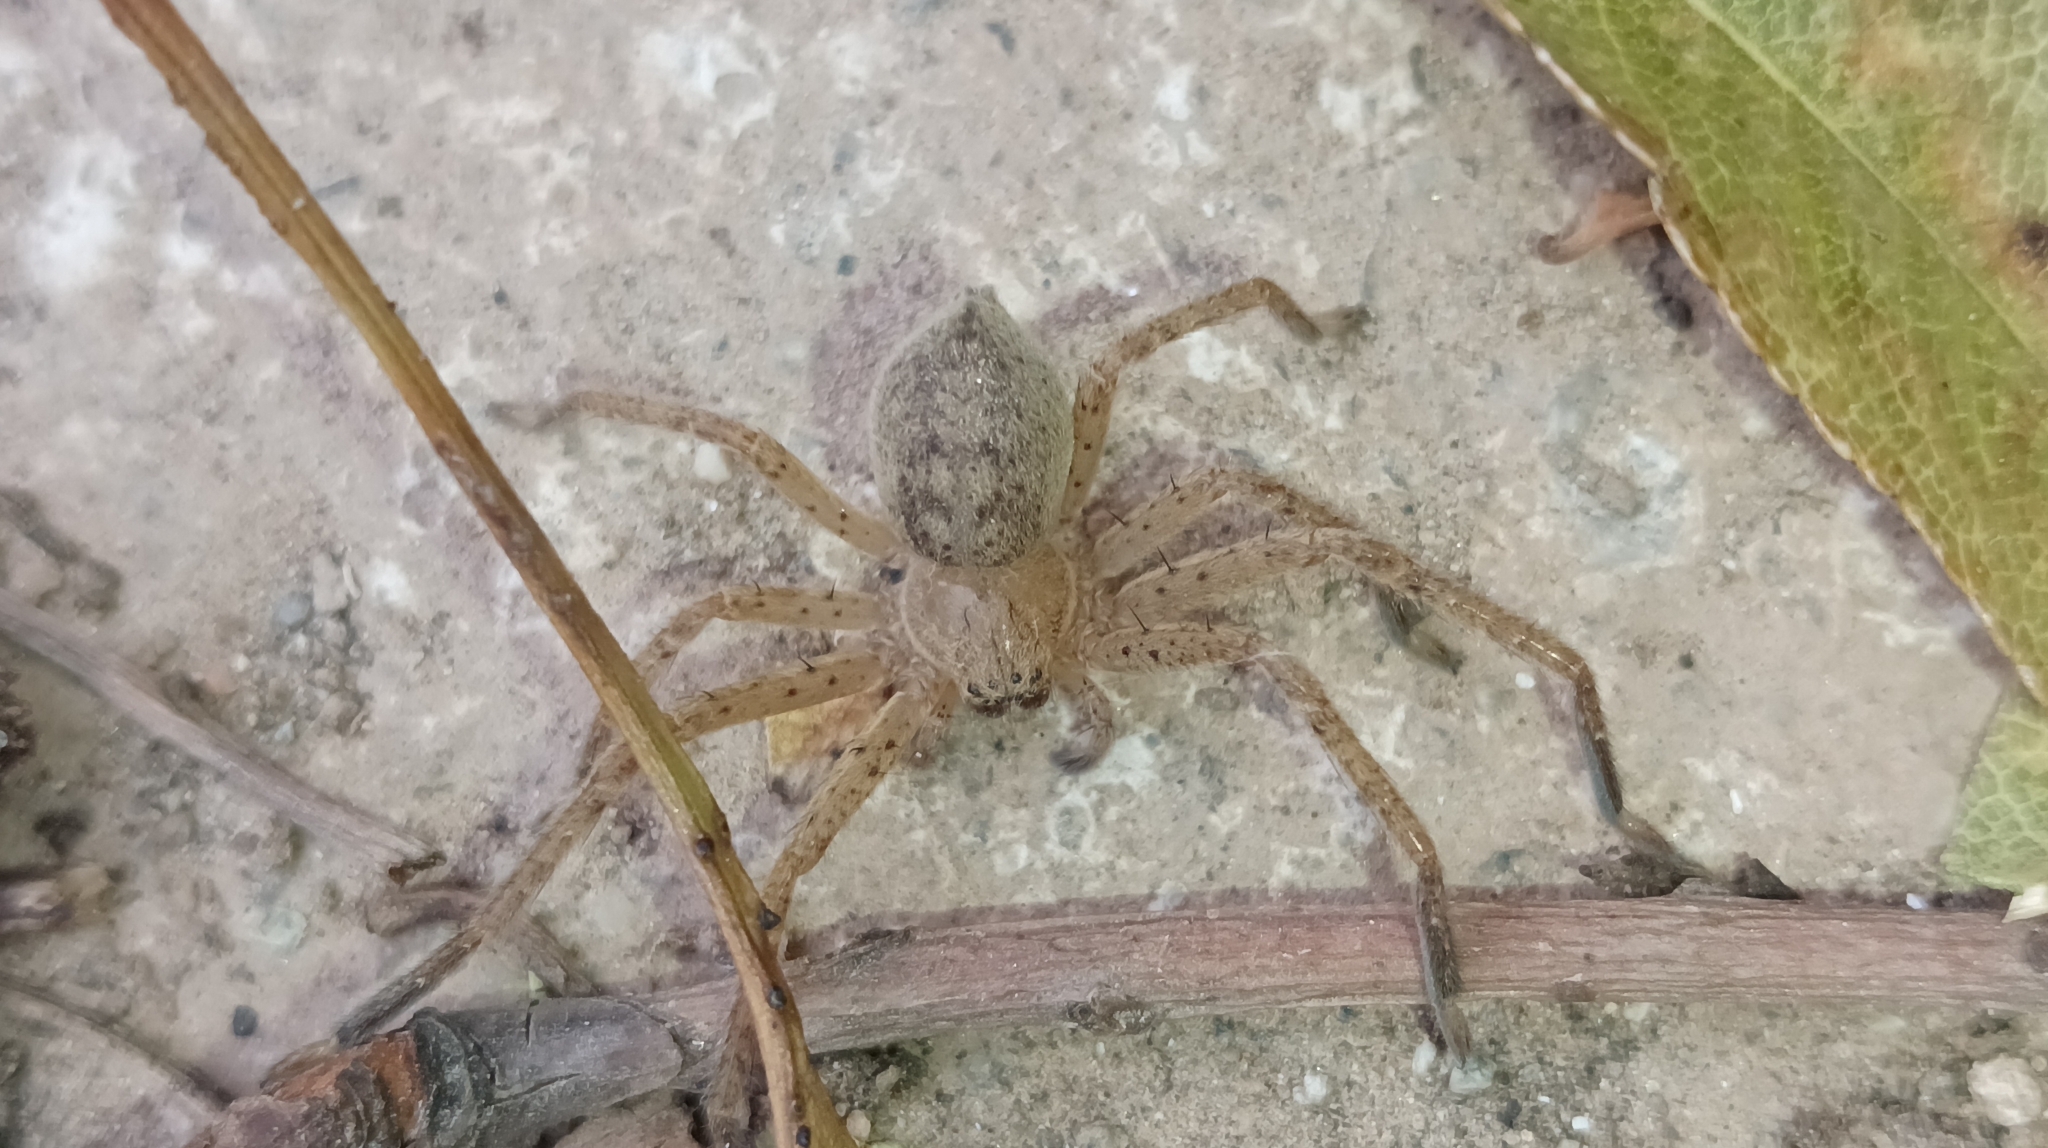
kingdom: Animalia
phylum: Arthropoda
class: Arachnida
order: Araneae
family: Sparassidae
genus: Olios
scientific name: Olios argelasius
